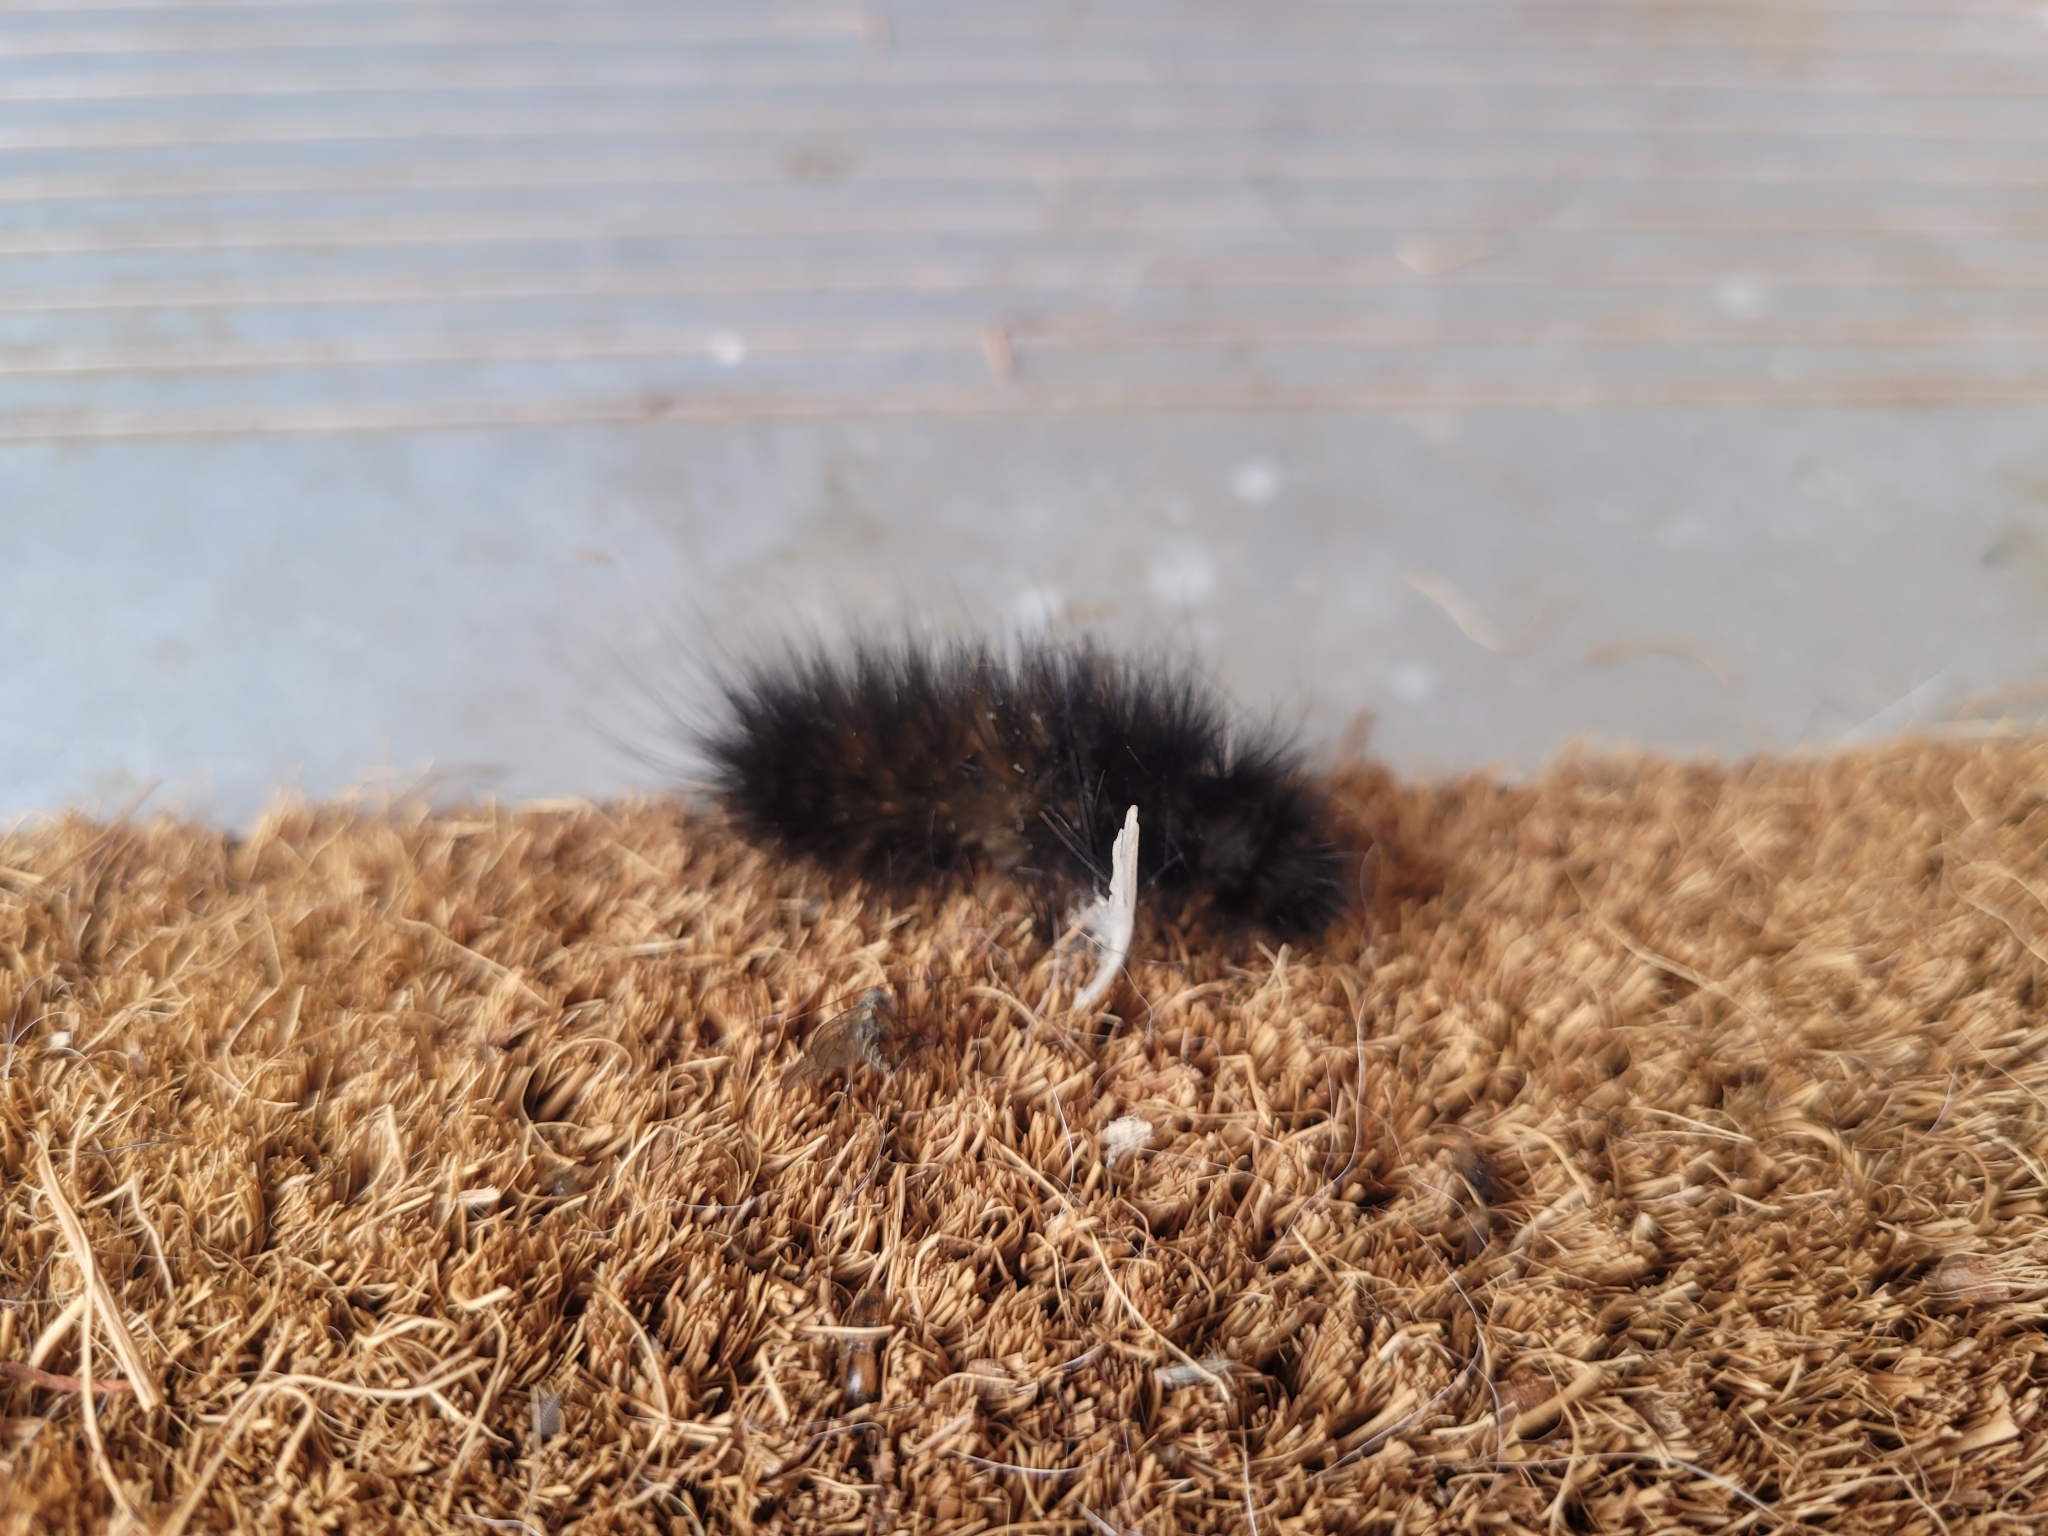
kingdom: Animalia
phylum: Arthropoda
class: Insecta
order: Lepidoptera
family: Erebidae
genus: Estigmene
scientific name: Estigmene acrea
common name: Salt marsh moth
